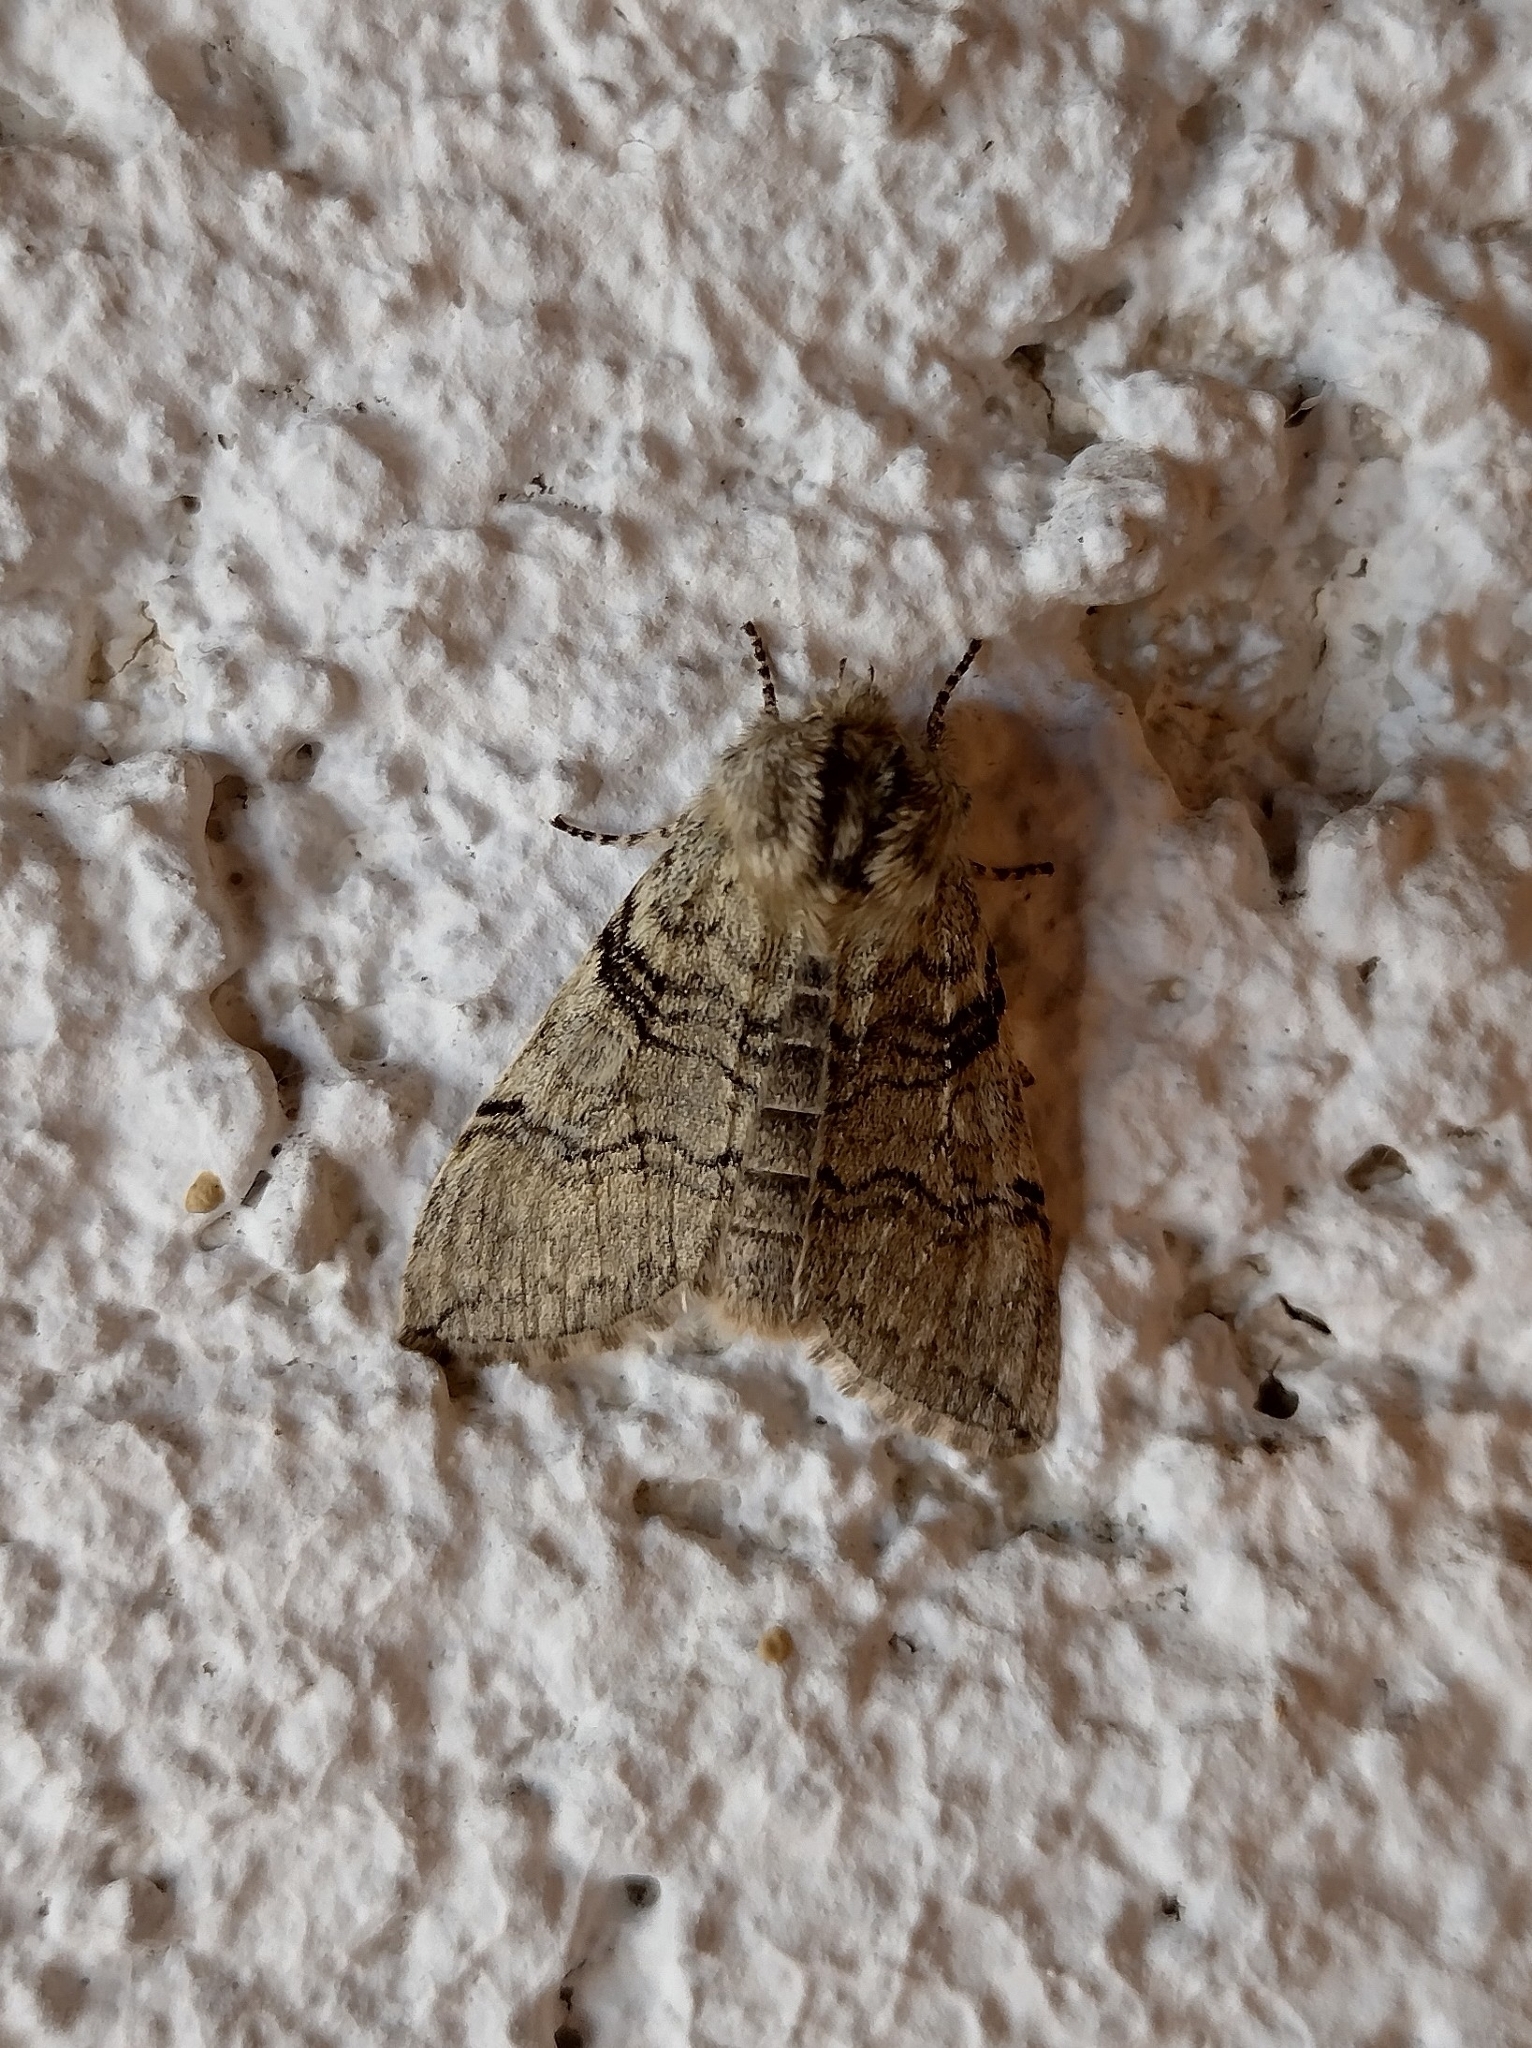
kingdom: Animalia
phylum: Arthropoda
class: Insecta
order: Lepidoptera
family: Drepanidae
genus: Achlya
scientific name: Achlya flavicornis
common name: Yellow horned
